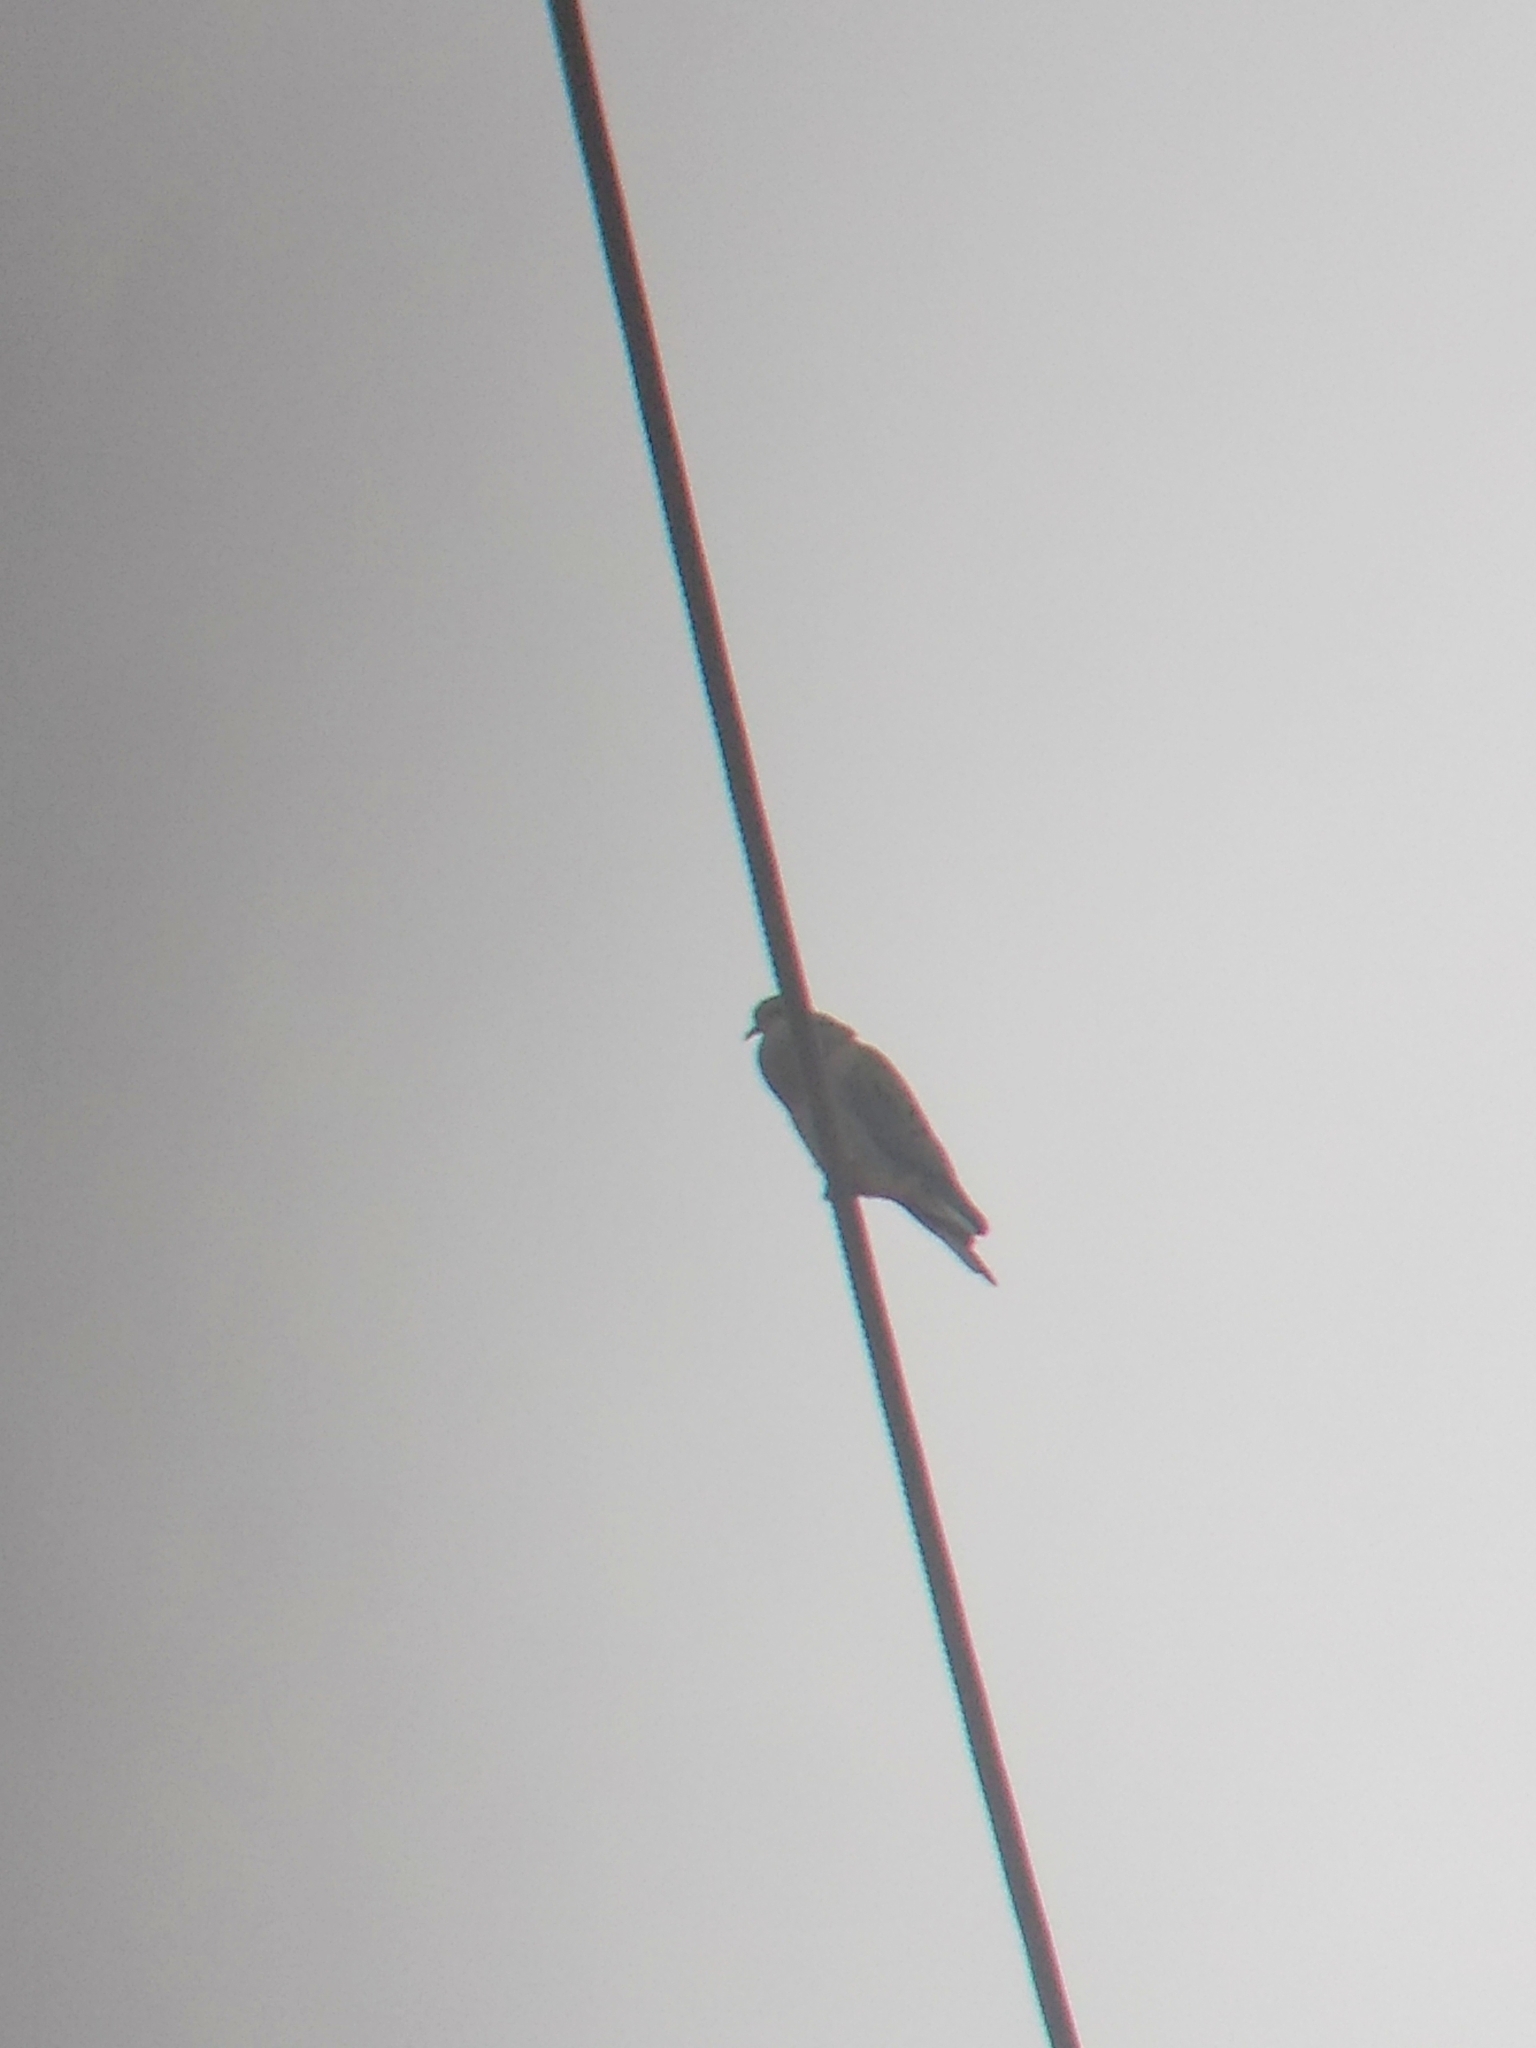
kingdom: Animalia
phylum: Chordata
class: Aves
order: Columbiformes
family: Columbidae
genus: Zenaida
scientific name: Zenaida macroura
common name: Mourning dove
